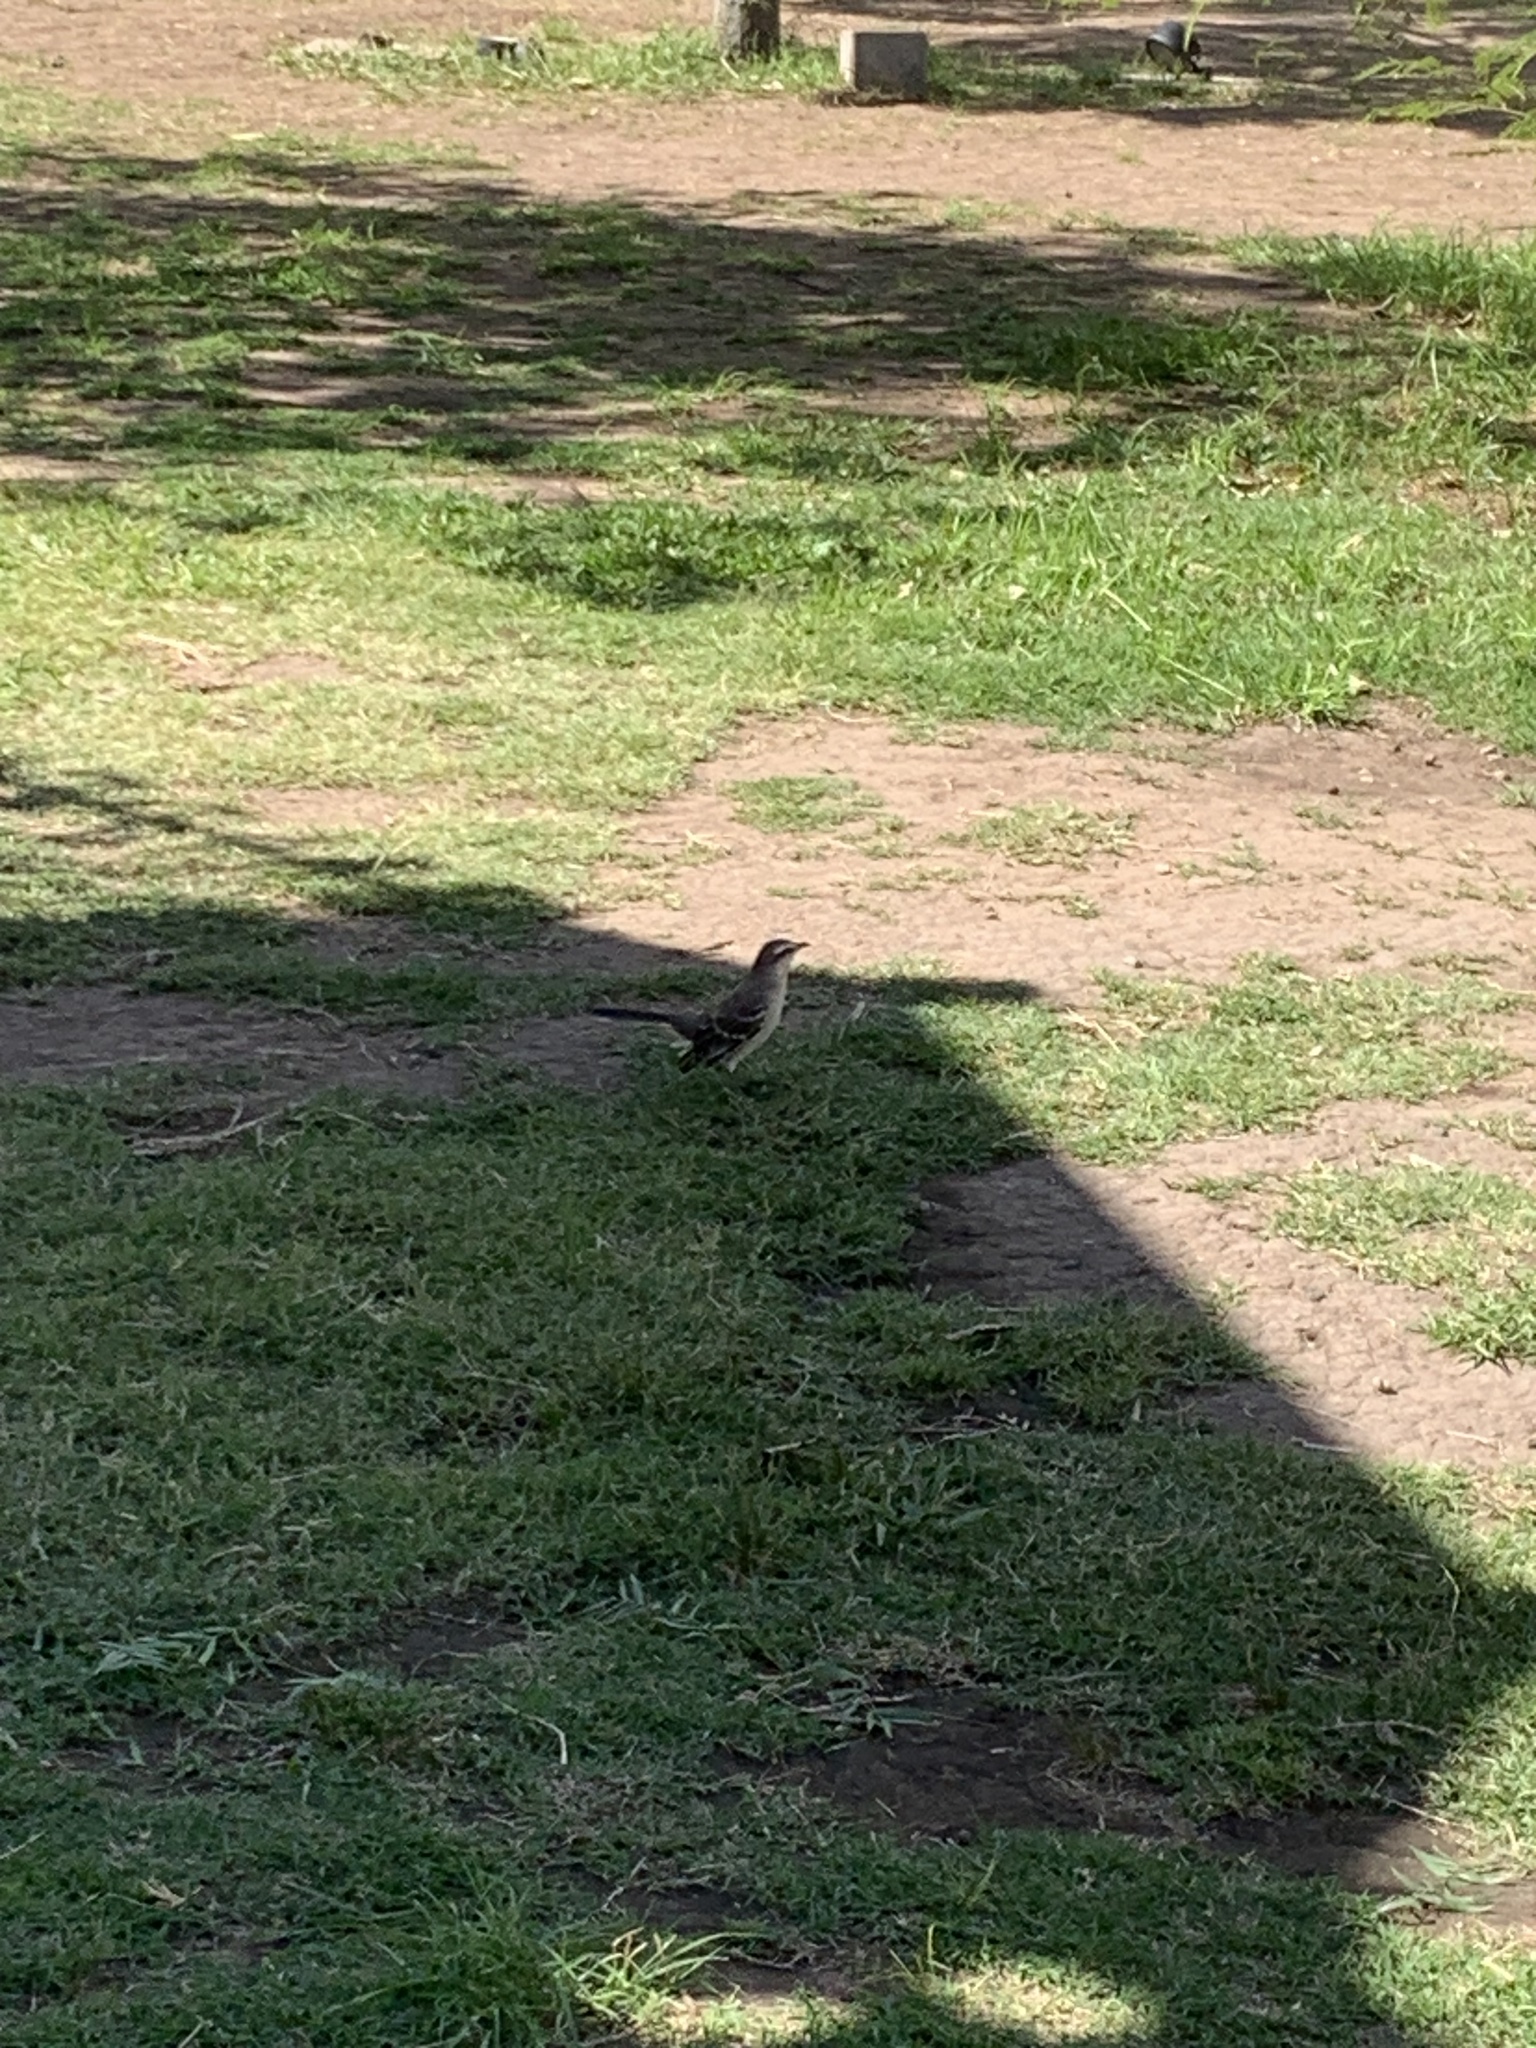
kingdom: Animalia
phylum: Chordata
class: Aves
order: Passeriformes
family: Mimidae
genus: Mimus
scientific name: Mimus saturninus
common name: Chalk-browed mockingbird
